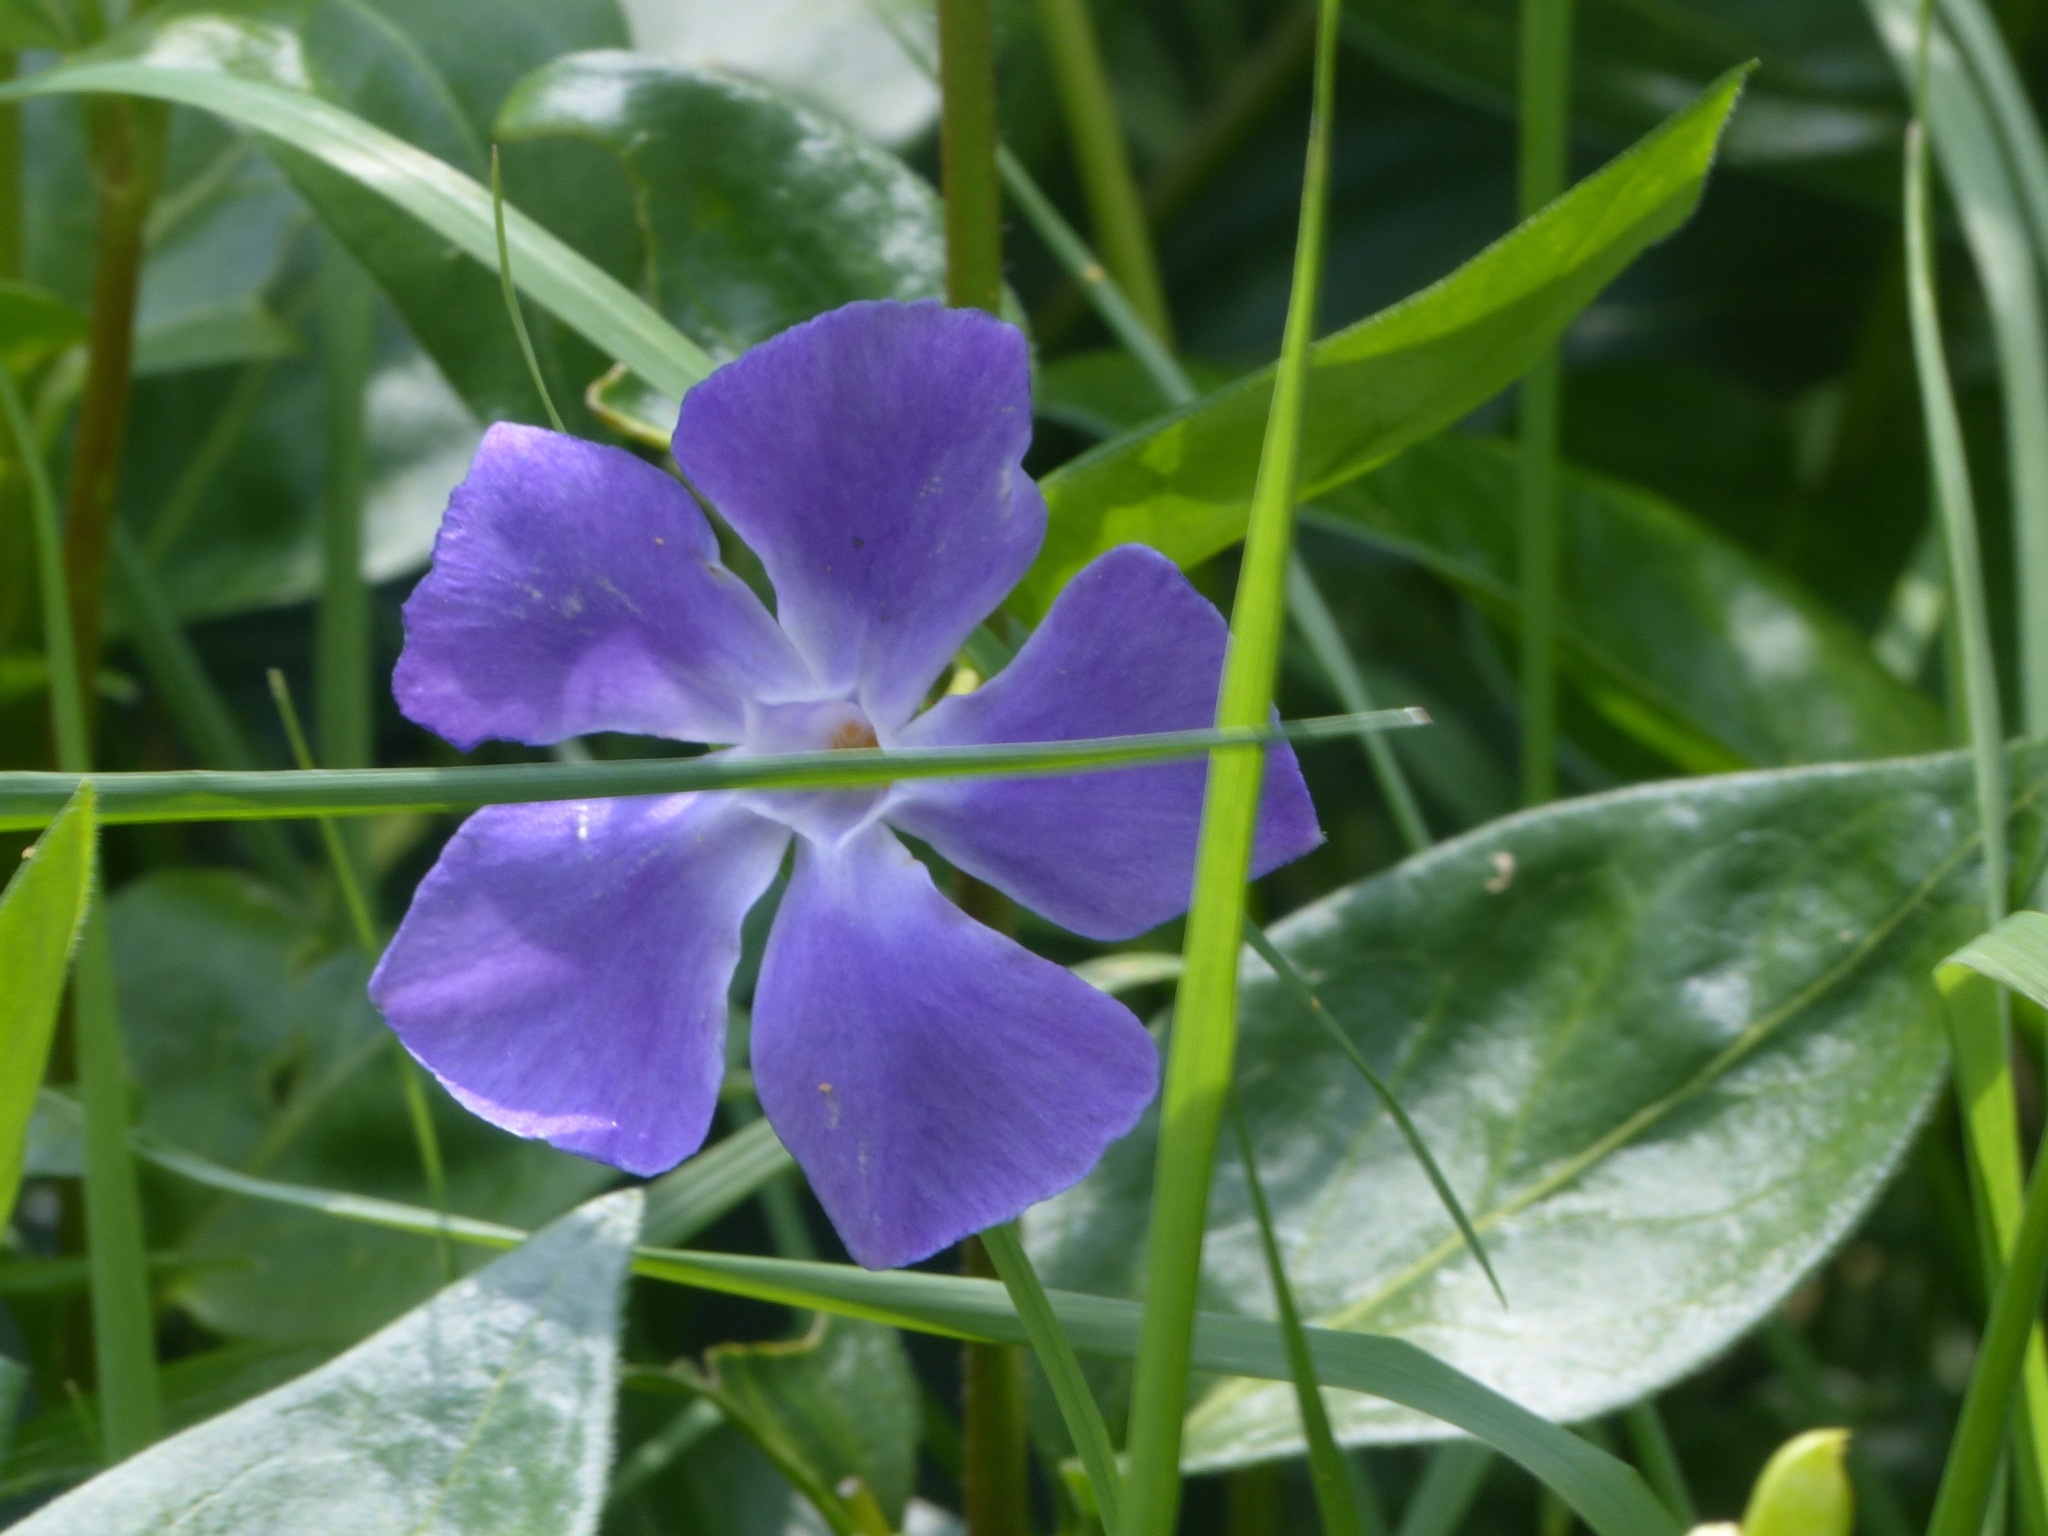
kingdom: Plantae
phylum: Tracheophyta
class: Magnoliopsida
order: Gentianales
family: Apocynaceae
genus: Vinca
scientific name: Vinca major
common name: Greater periwinkle
